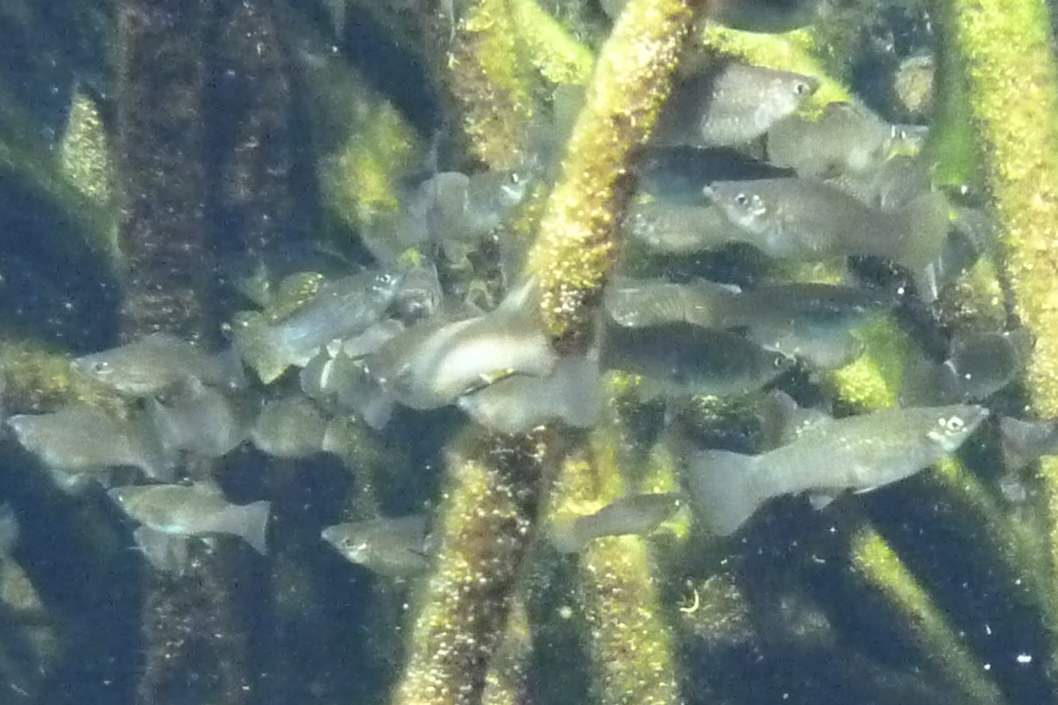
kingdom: Animalia
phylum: Chordata
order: Cyprinodontiformes
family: Poeciliidae
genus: Poecilia
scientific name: Poecilia orri
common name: Mangrove molly
